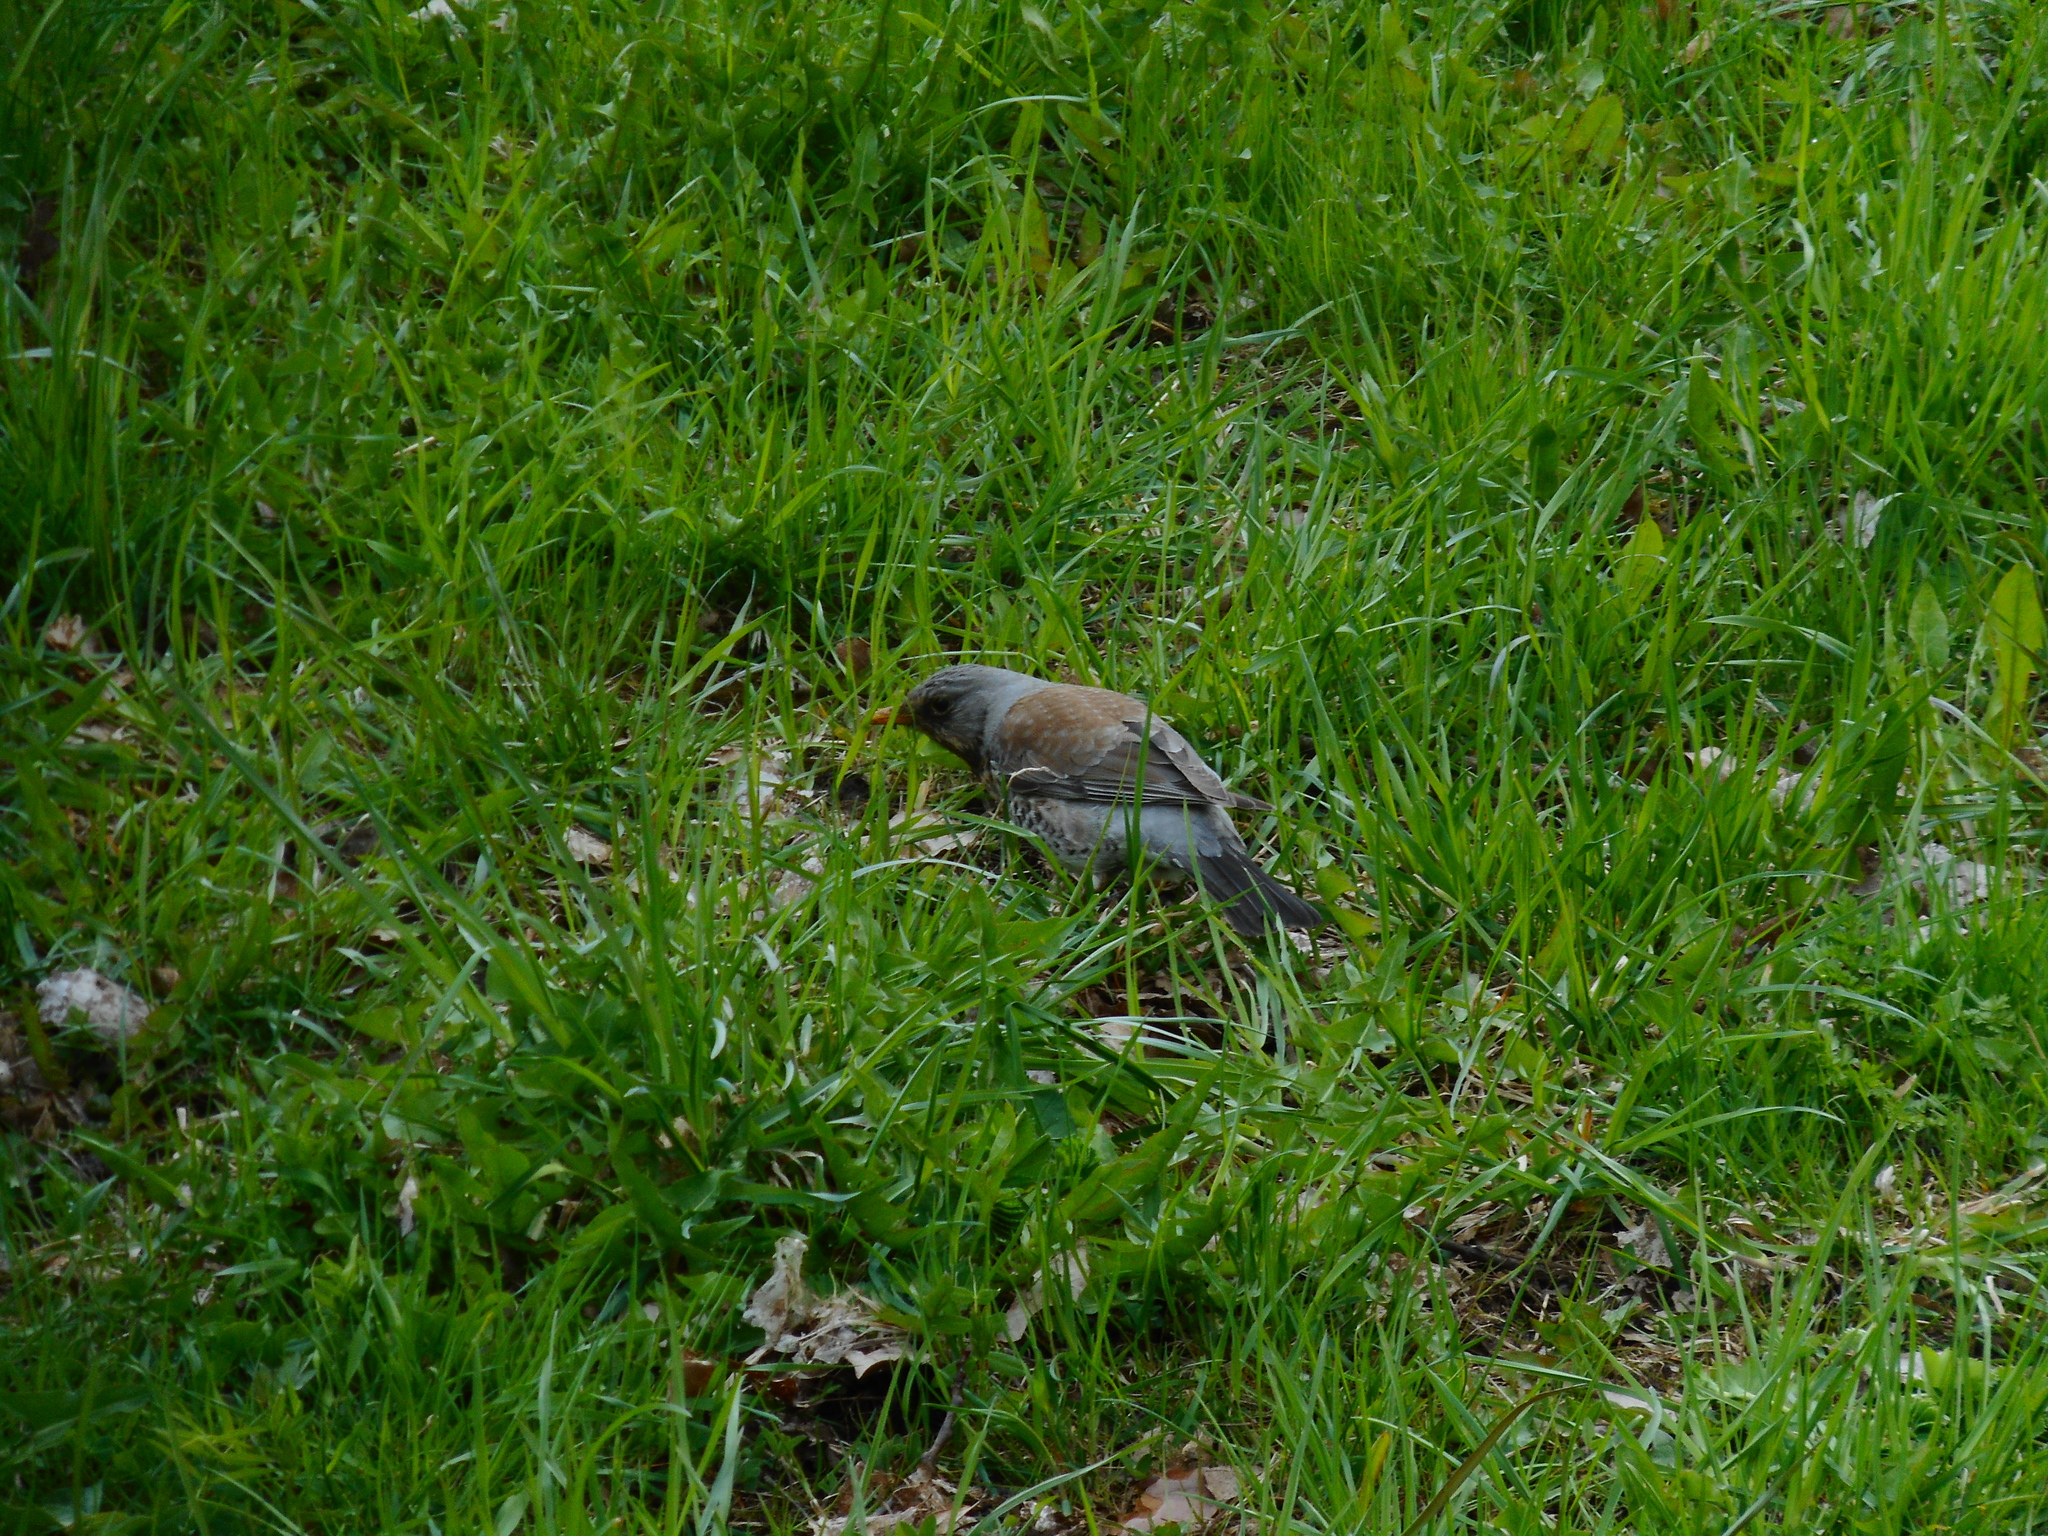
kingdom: Animalia
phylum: Chordata
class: Aves
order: Passeriformes
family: Turdidae
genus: Turdus
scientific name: Turdus pilaris
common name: Fieldfare
